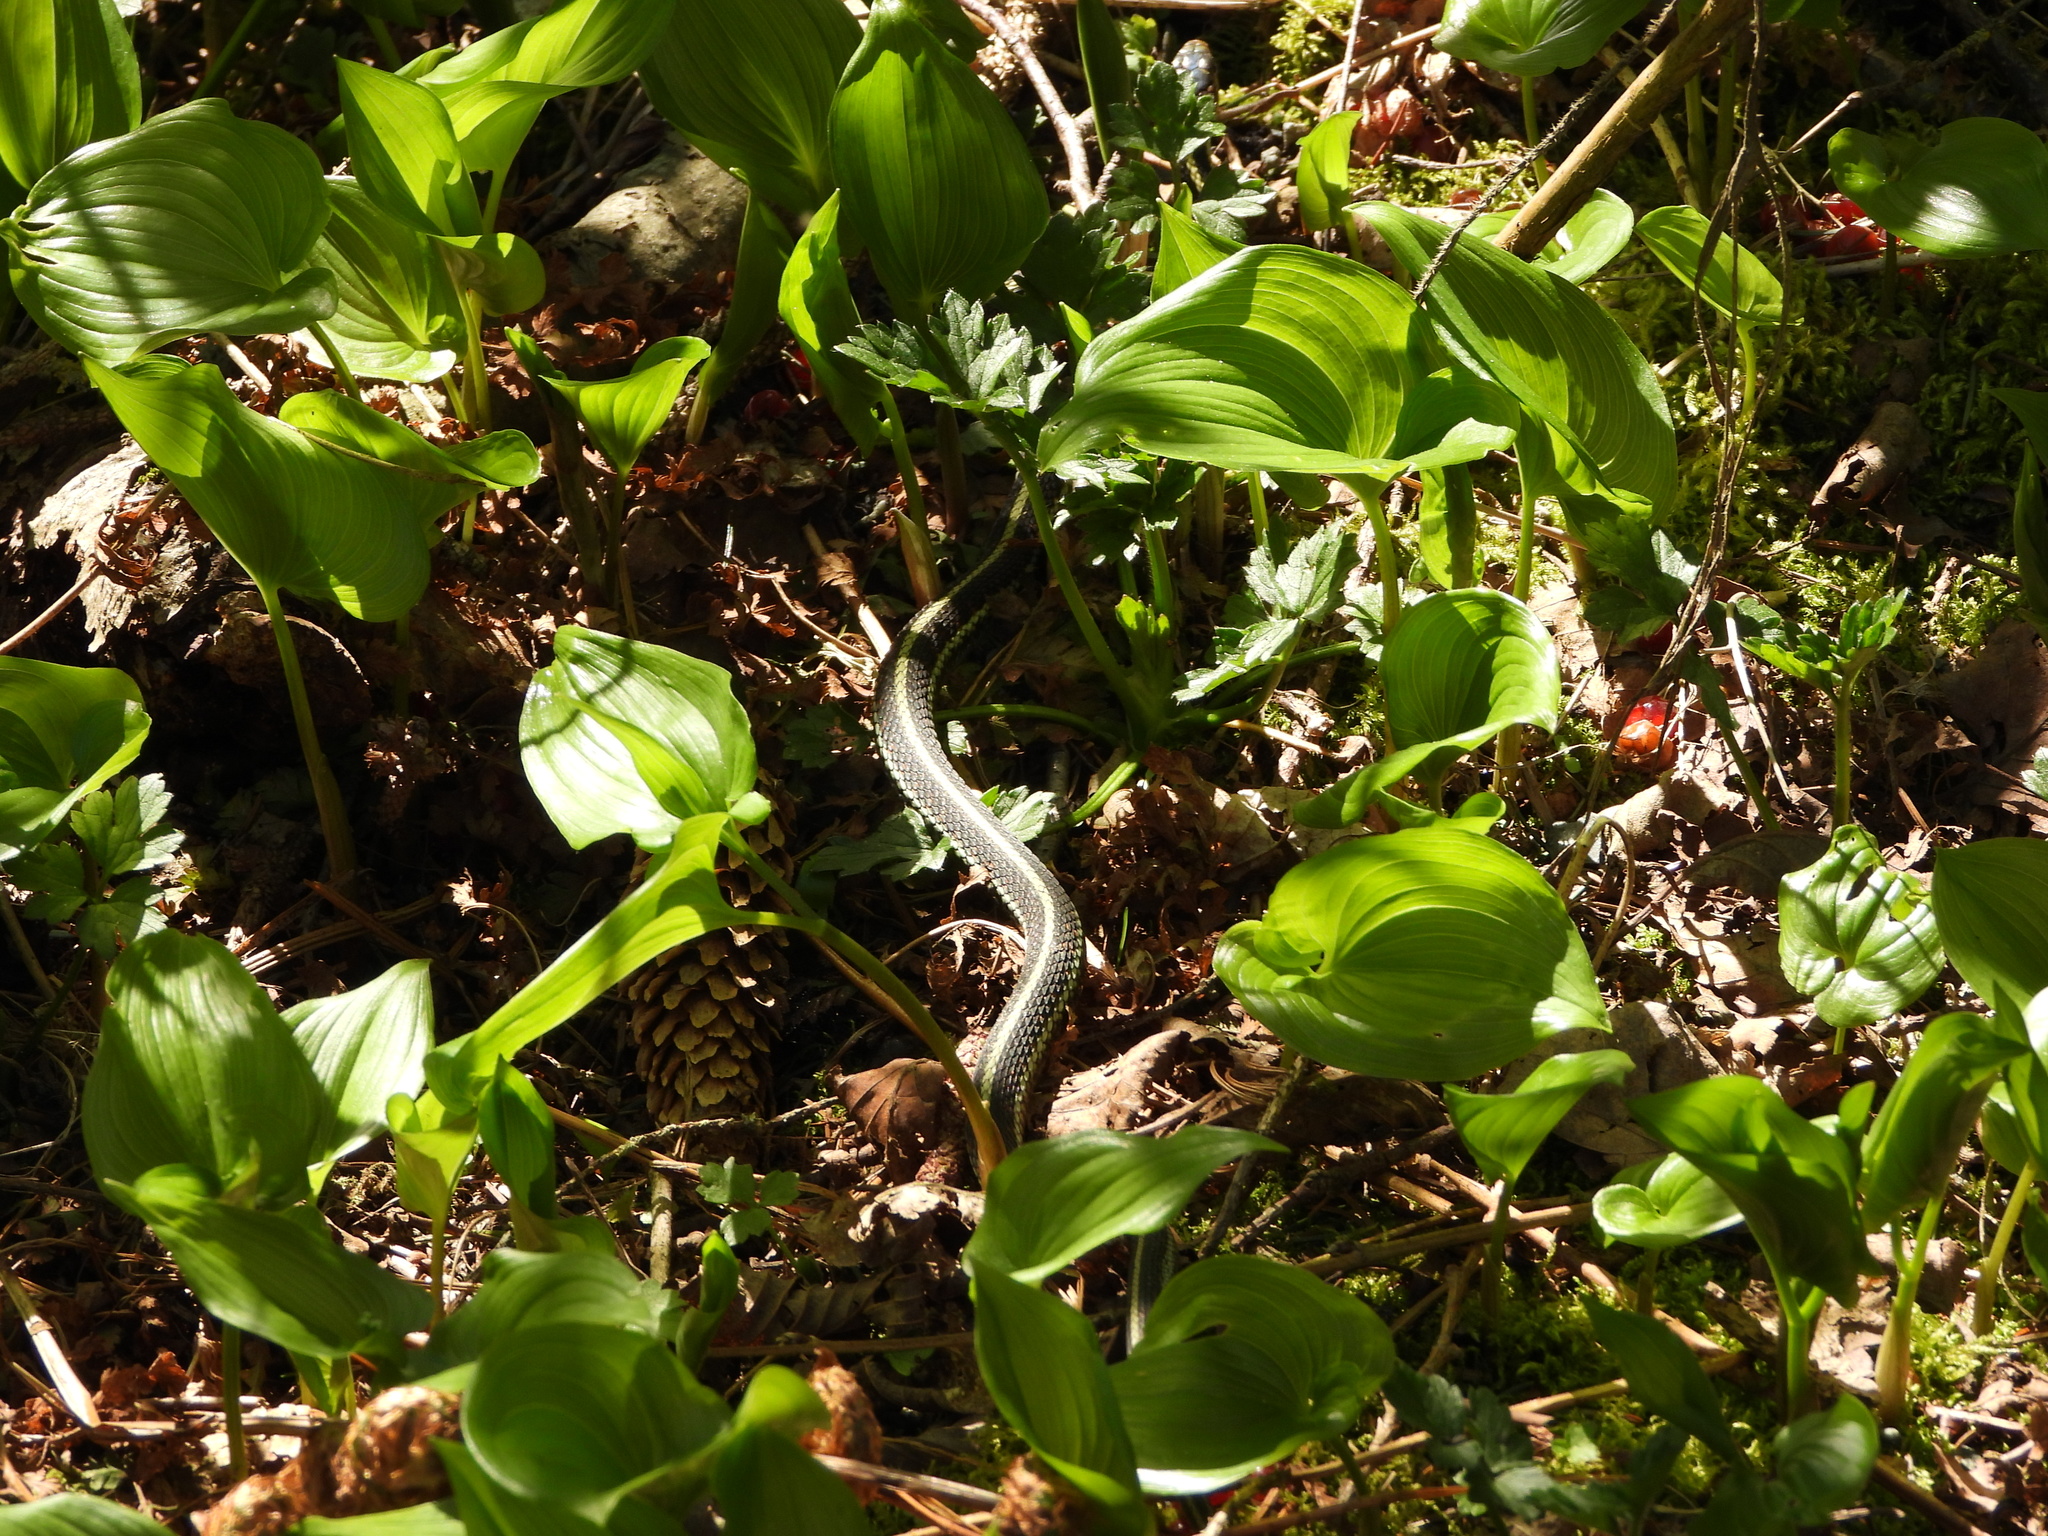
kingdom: Animalia
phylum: Chordata
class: Squamata
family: Colubridae
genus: Thamnophis
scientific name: Thamnophis sirtalis
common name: Common garter snake
